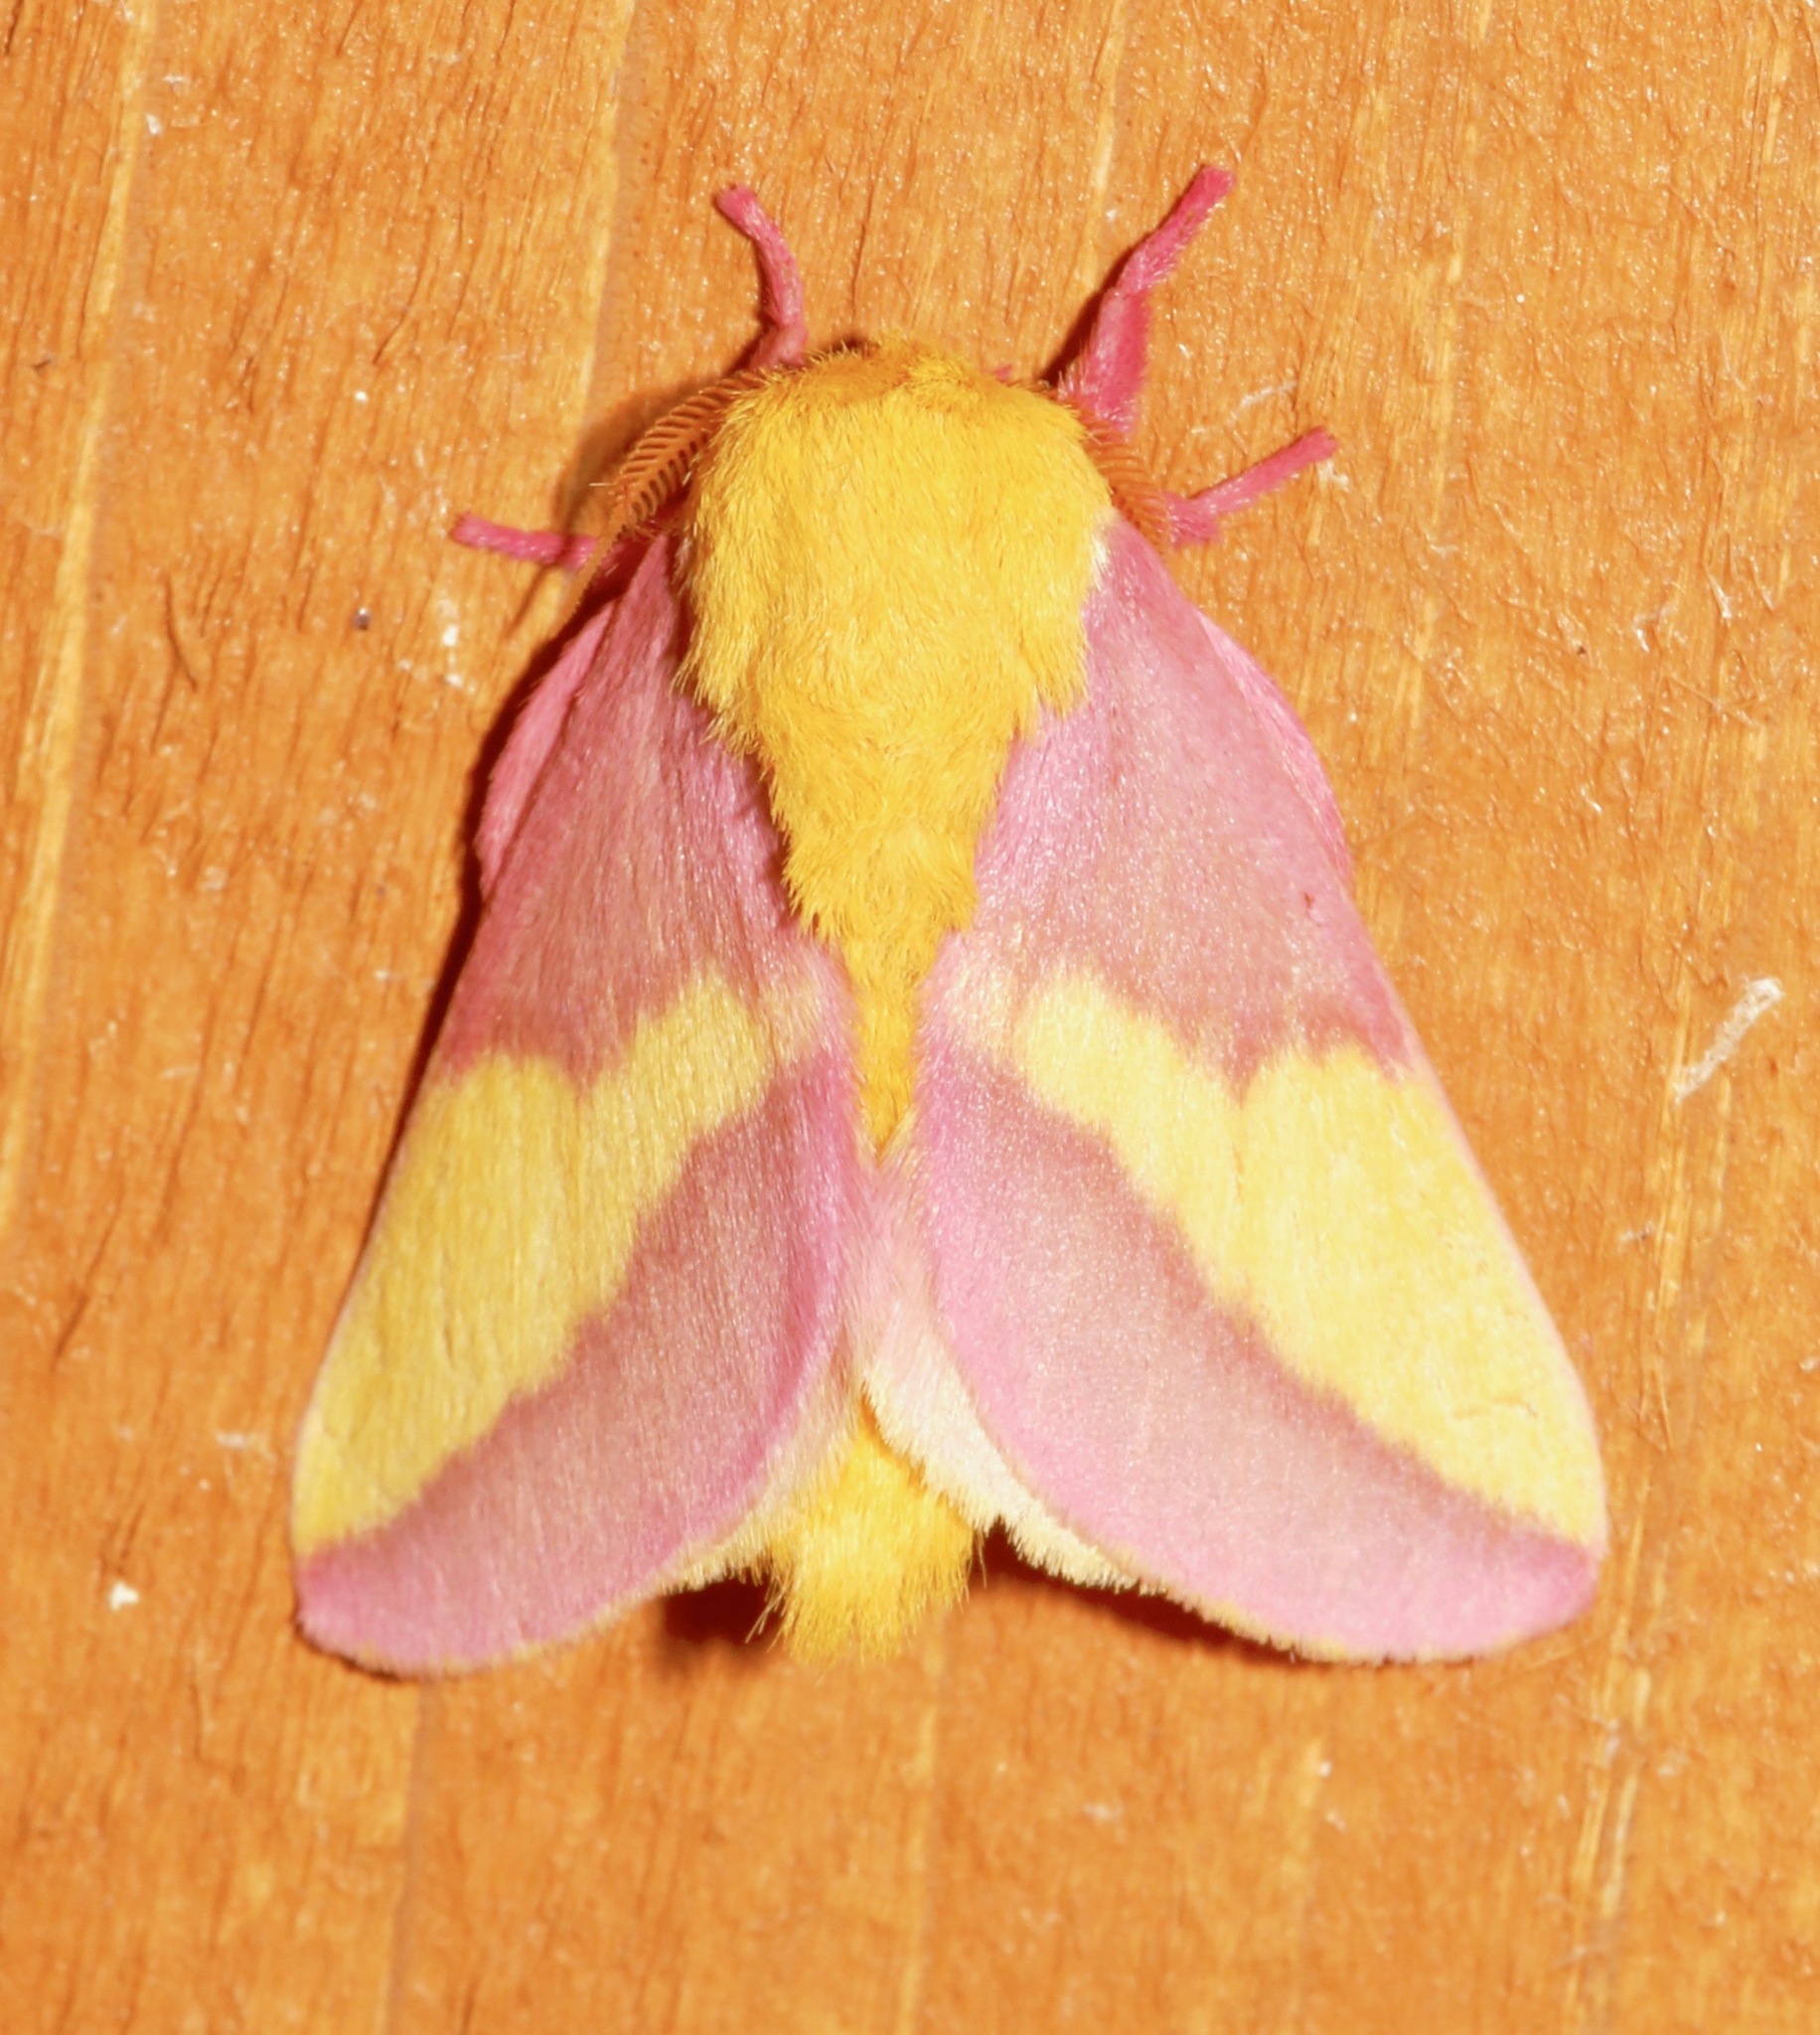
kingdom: Animalia
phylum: Arthropoda
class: Insecta
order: Lepidoptera
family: Saturniidae
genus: Dryocampa
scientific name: Dryocampa rubicunda
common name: Rosy maple moth
